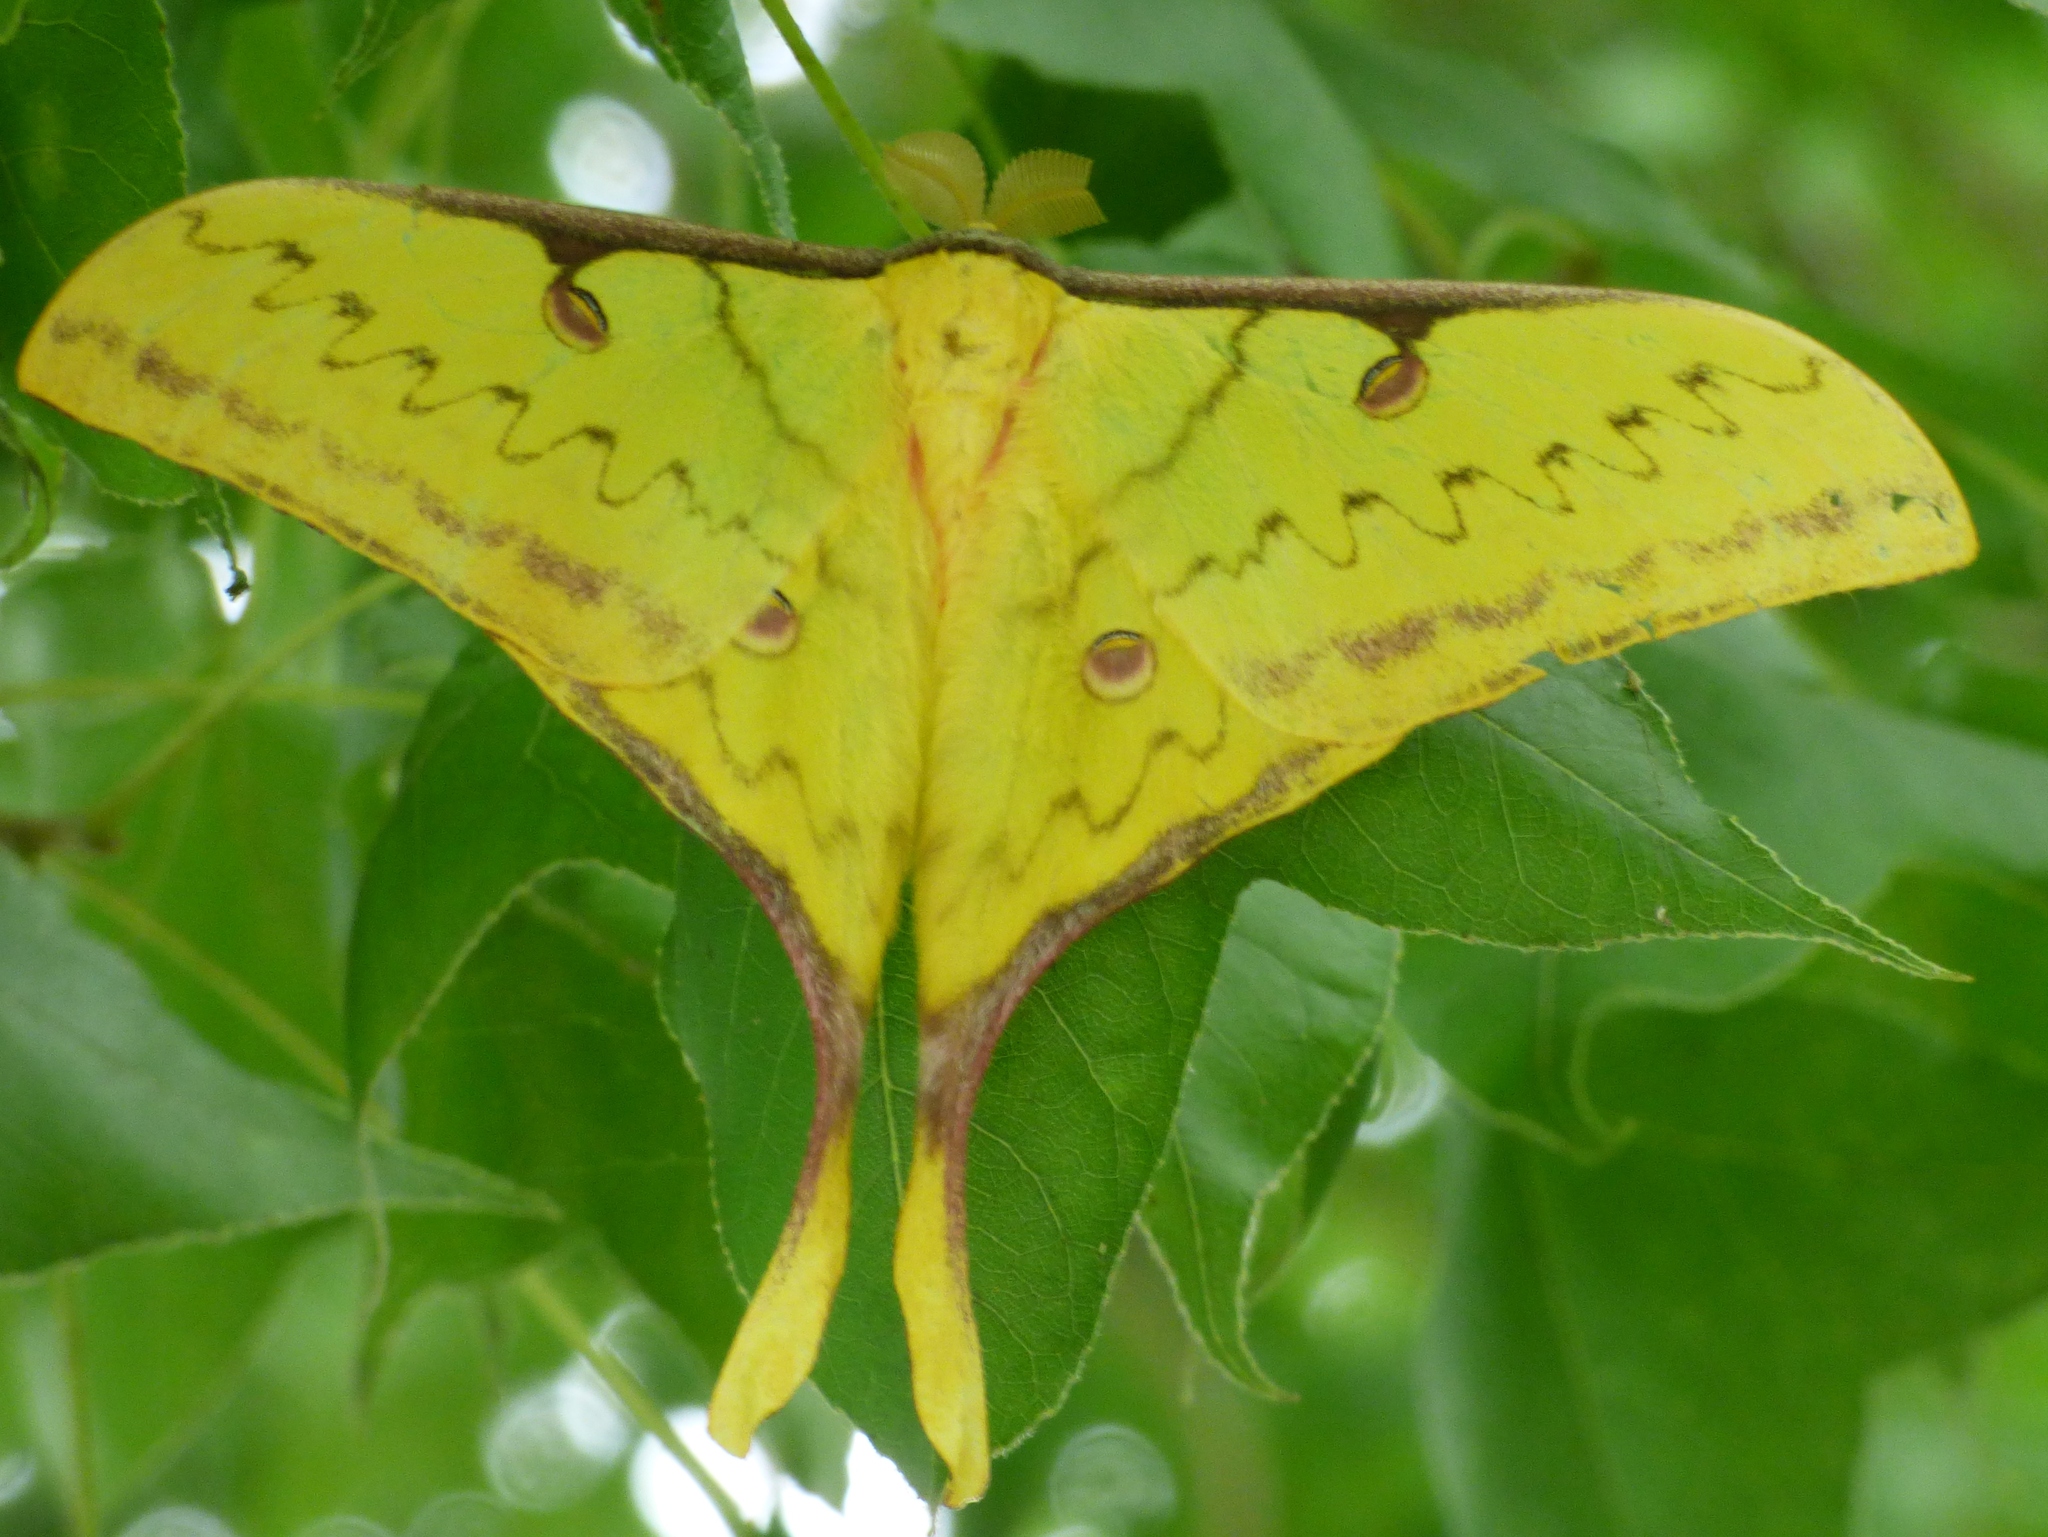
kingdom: Animalia
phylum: Arthropoda
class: Insecta
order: Lepidoptera
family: Saturniidae
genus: Actias
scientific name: Actias sinensis
